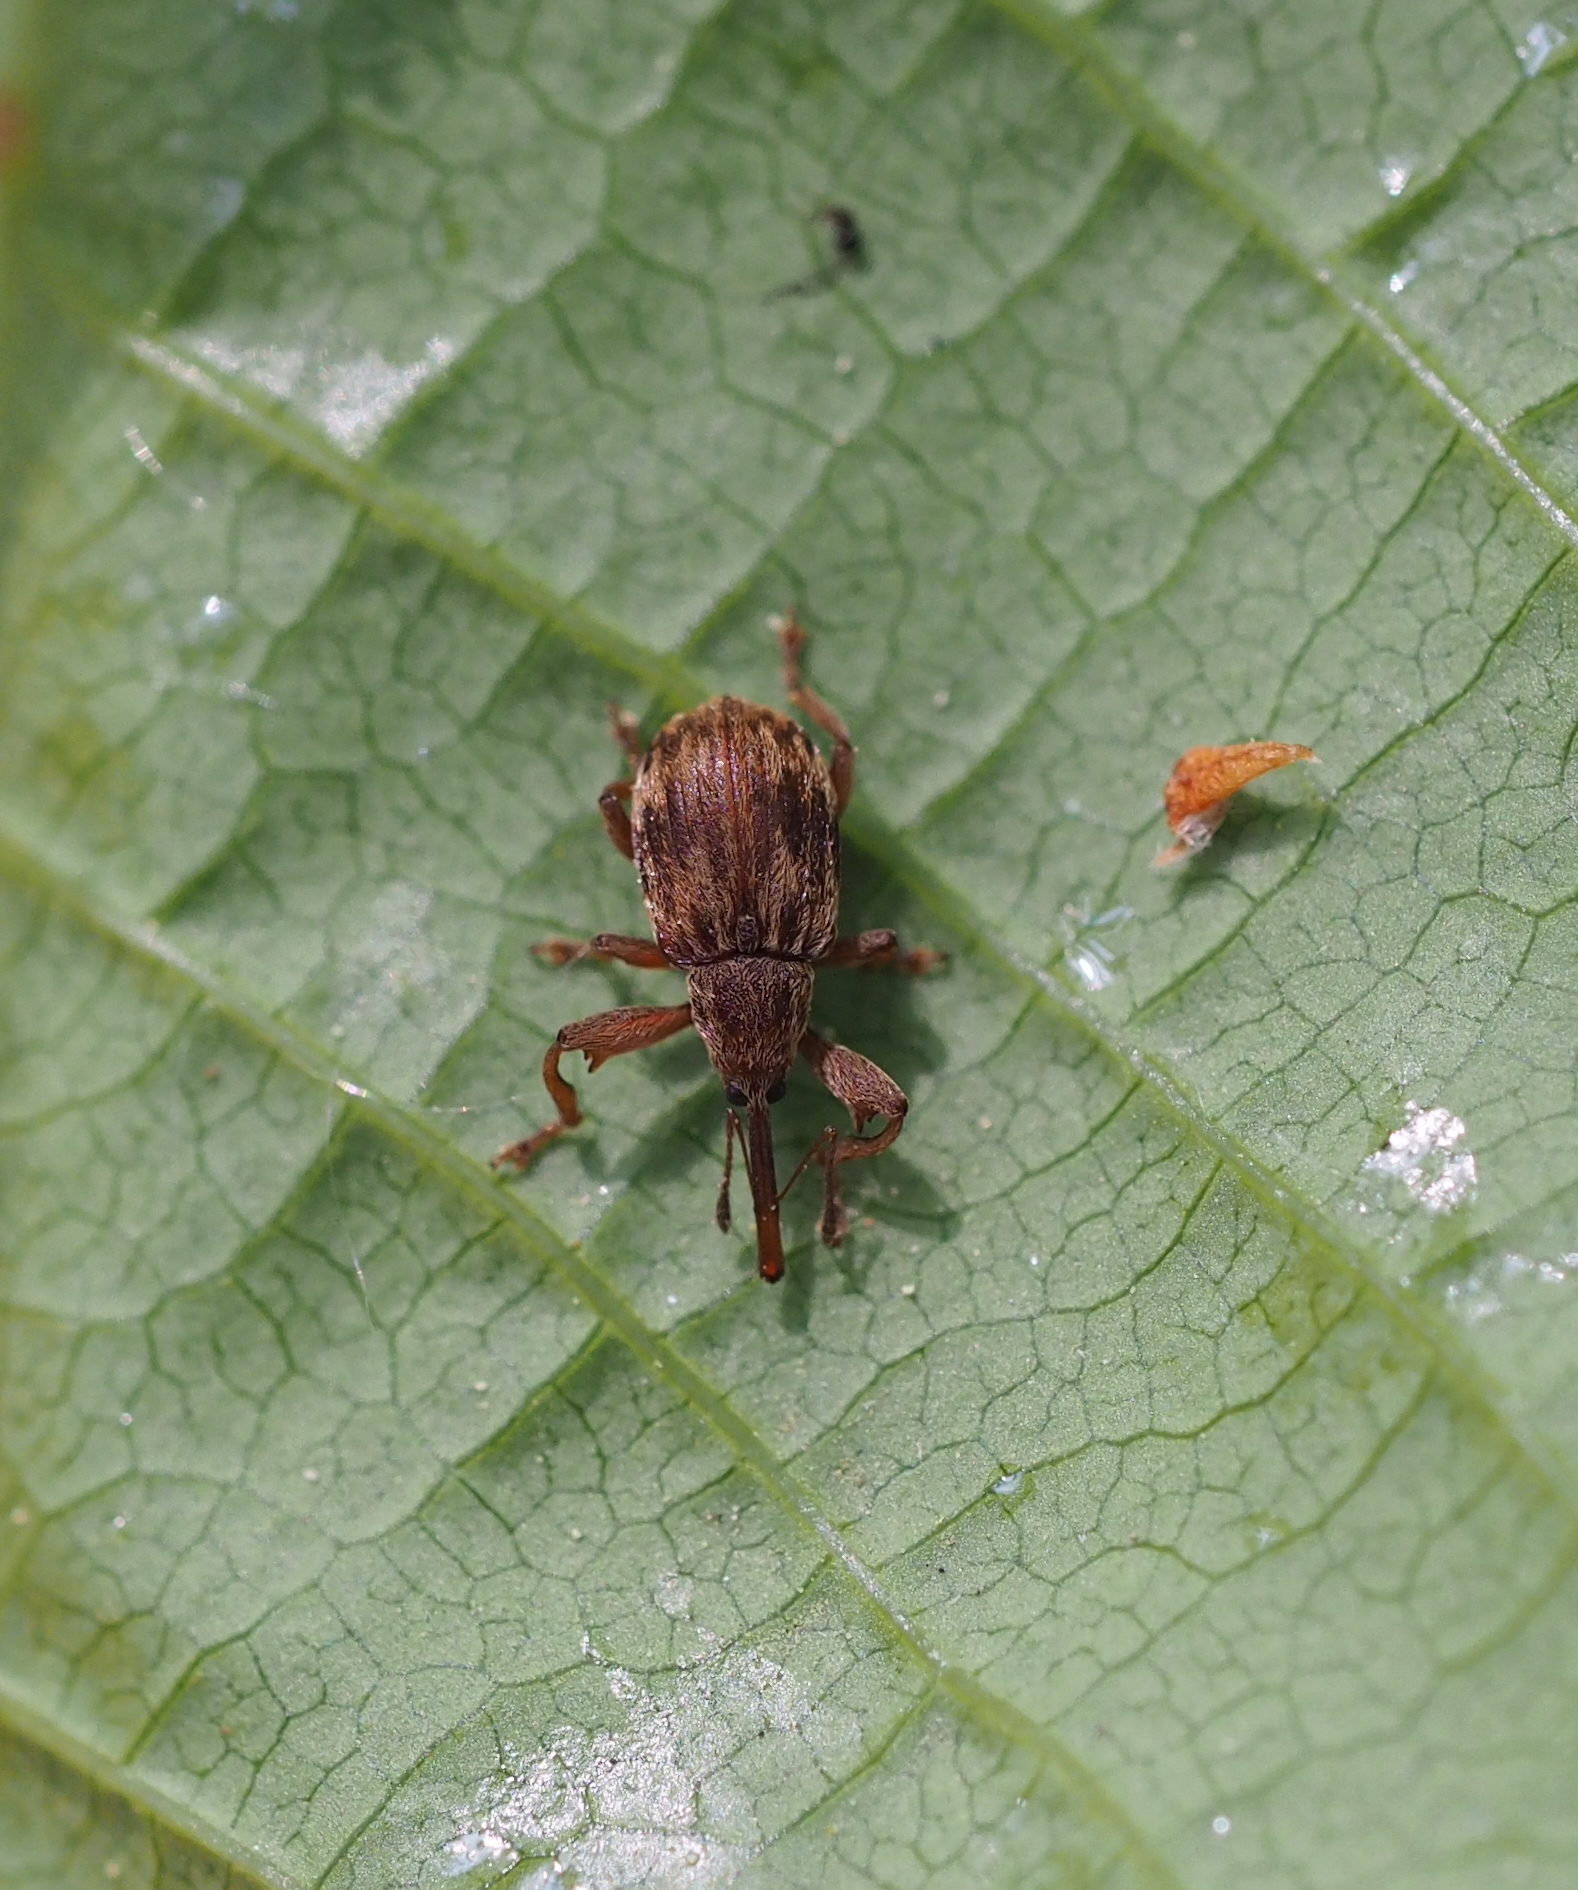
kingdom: Animalia
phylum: Arthropoda
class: Insecta
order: Coleoptera
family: Curculionidae
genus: Anthonomus
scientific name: Anthonomus rectirostris
